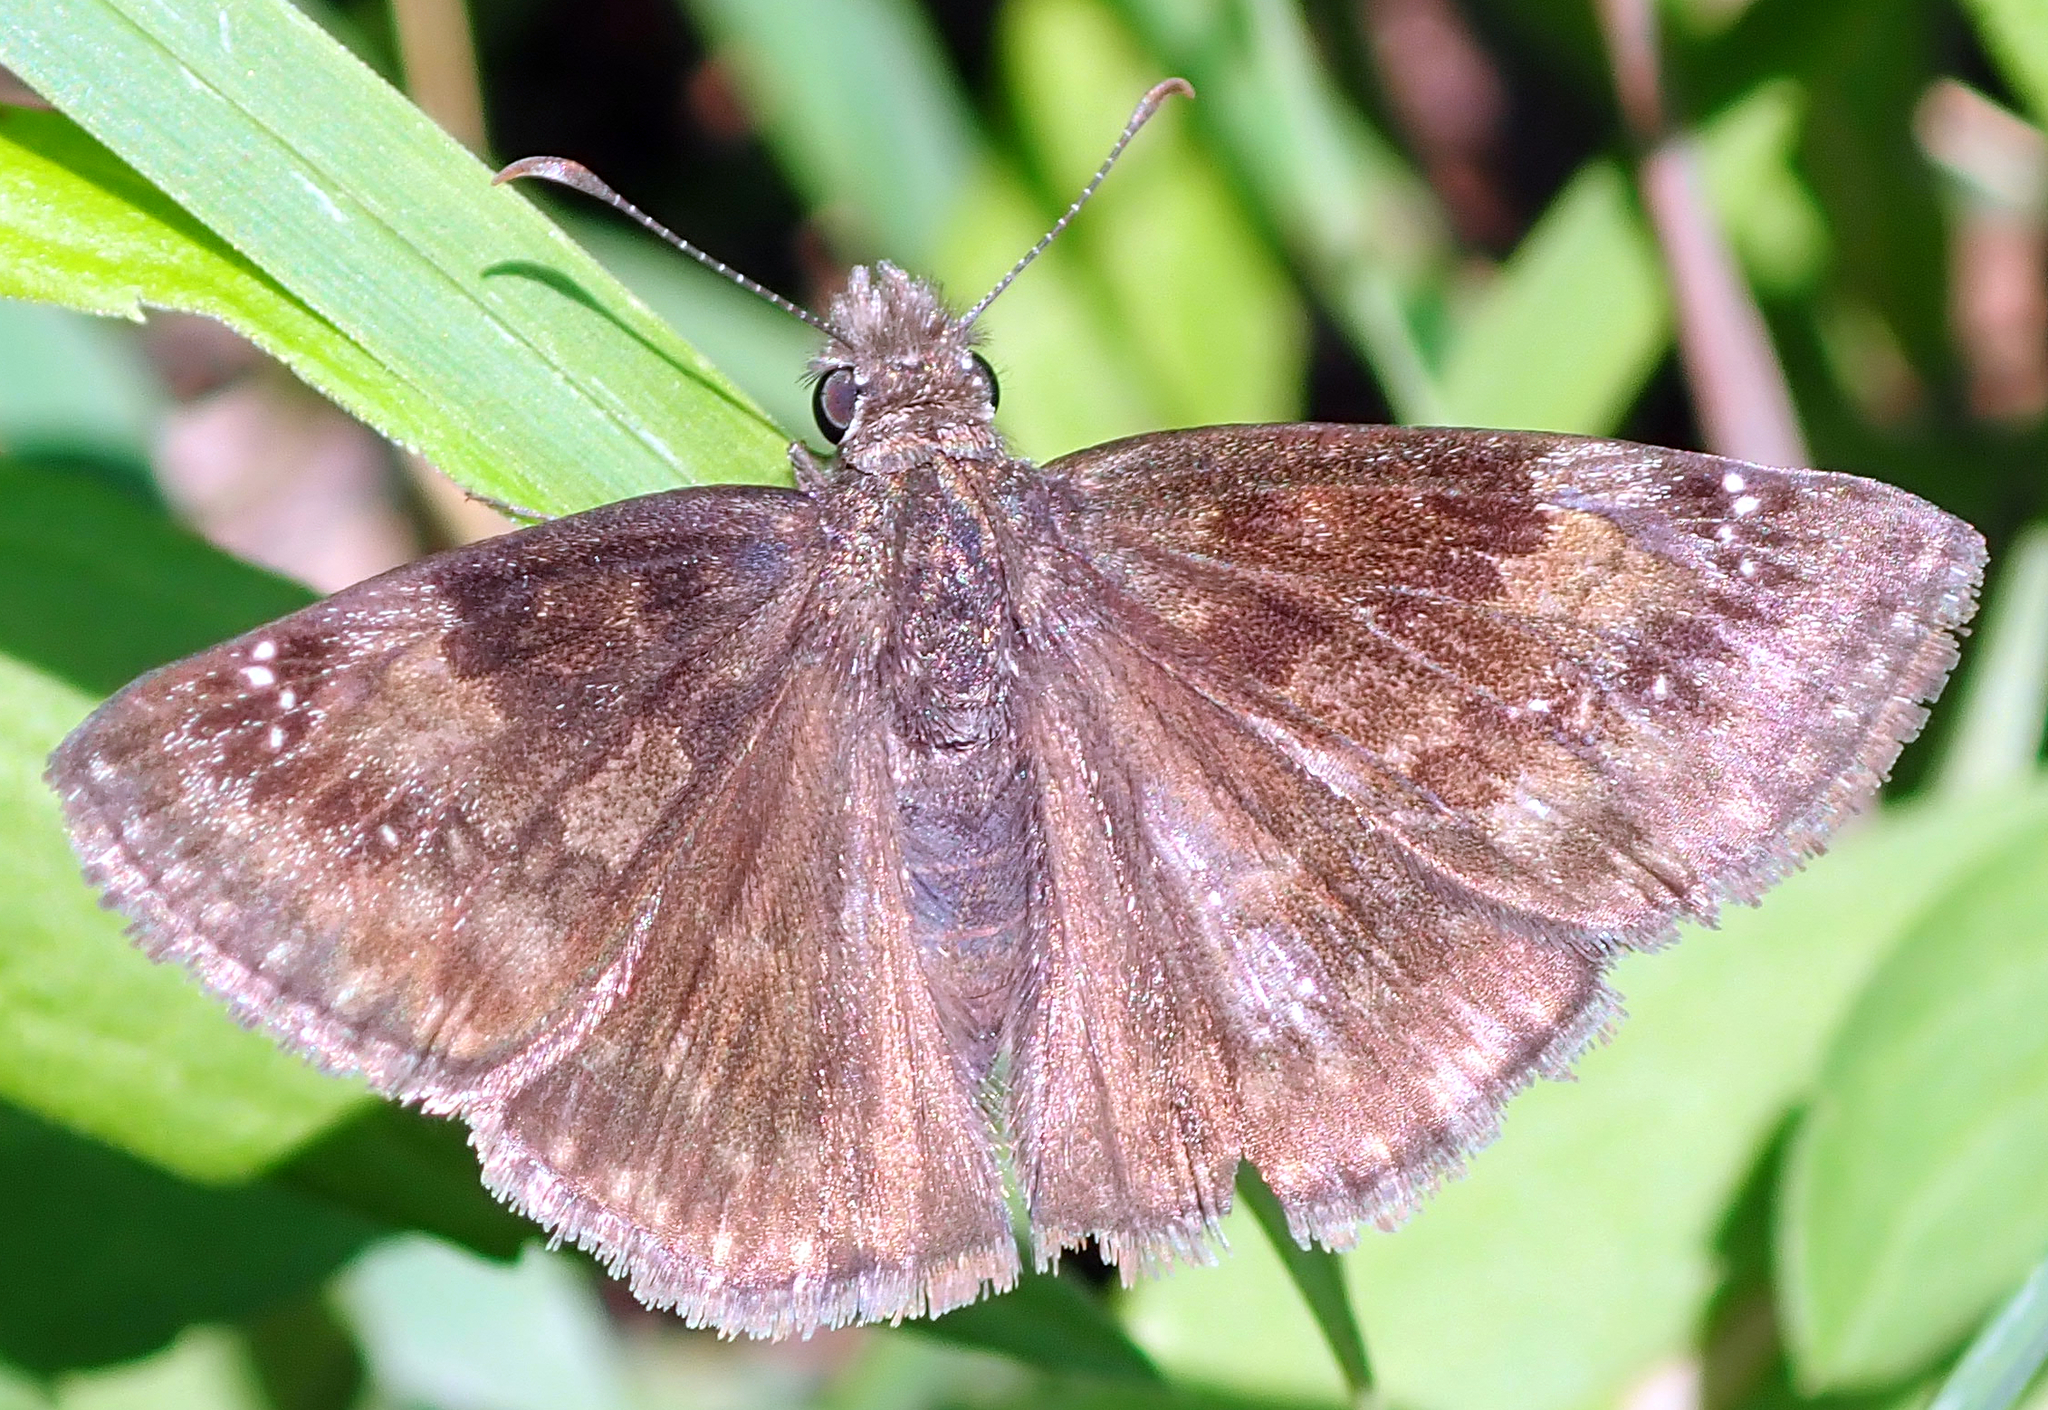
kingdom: Animalia
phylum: Arthropoda
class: Insecta
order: Lepidoptera
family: Hesperiidae
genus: Erynnis
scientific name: Erynnis baptisiae
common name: Wild indigo duskywing
